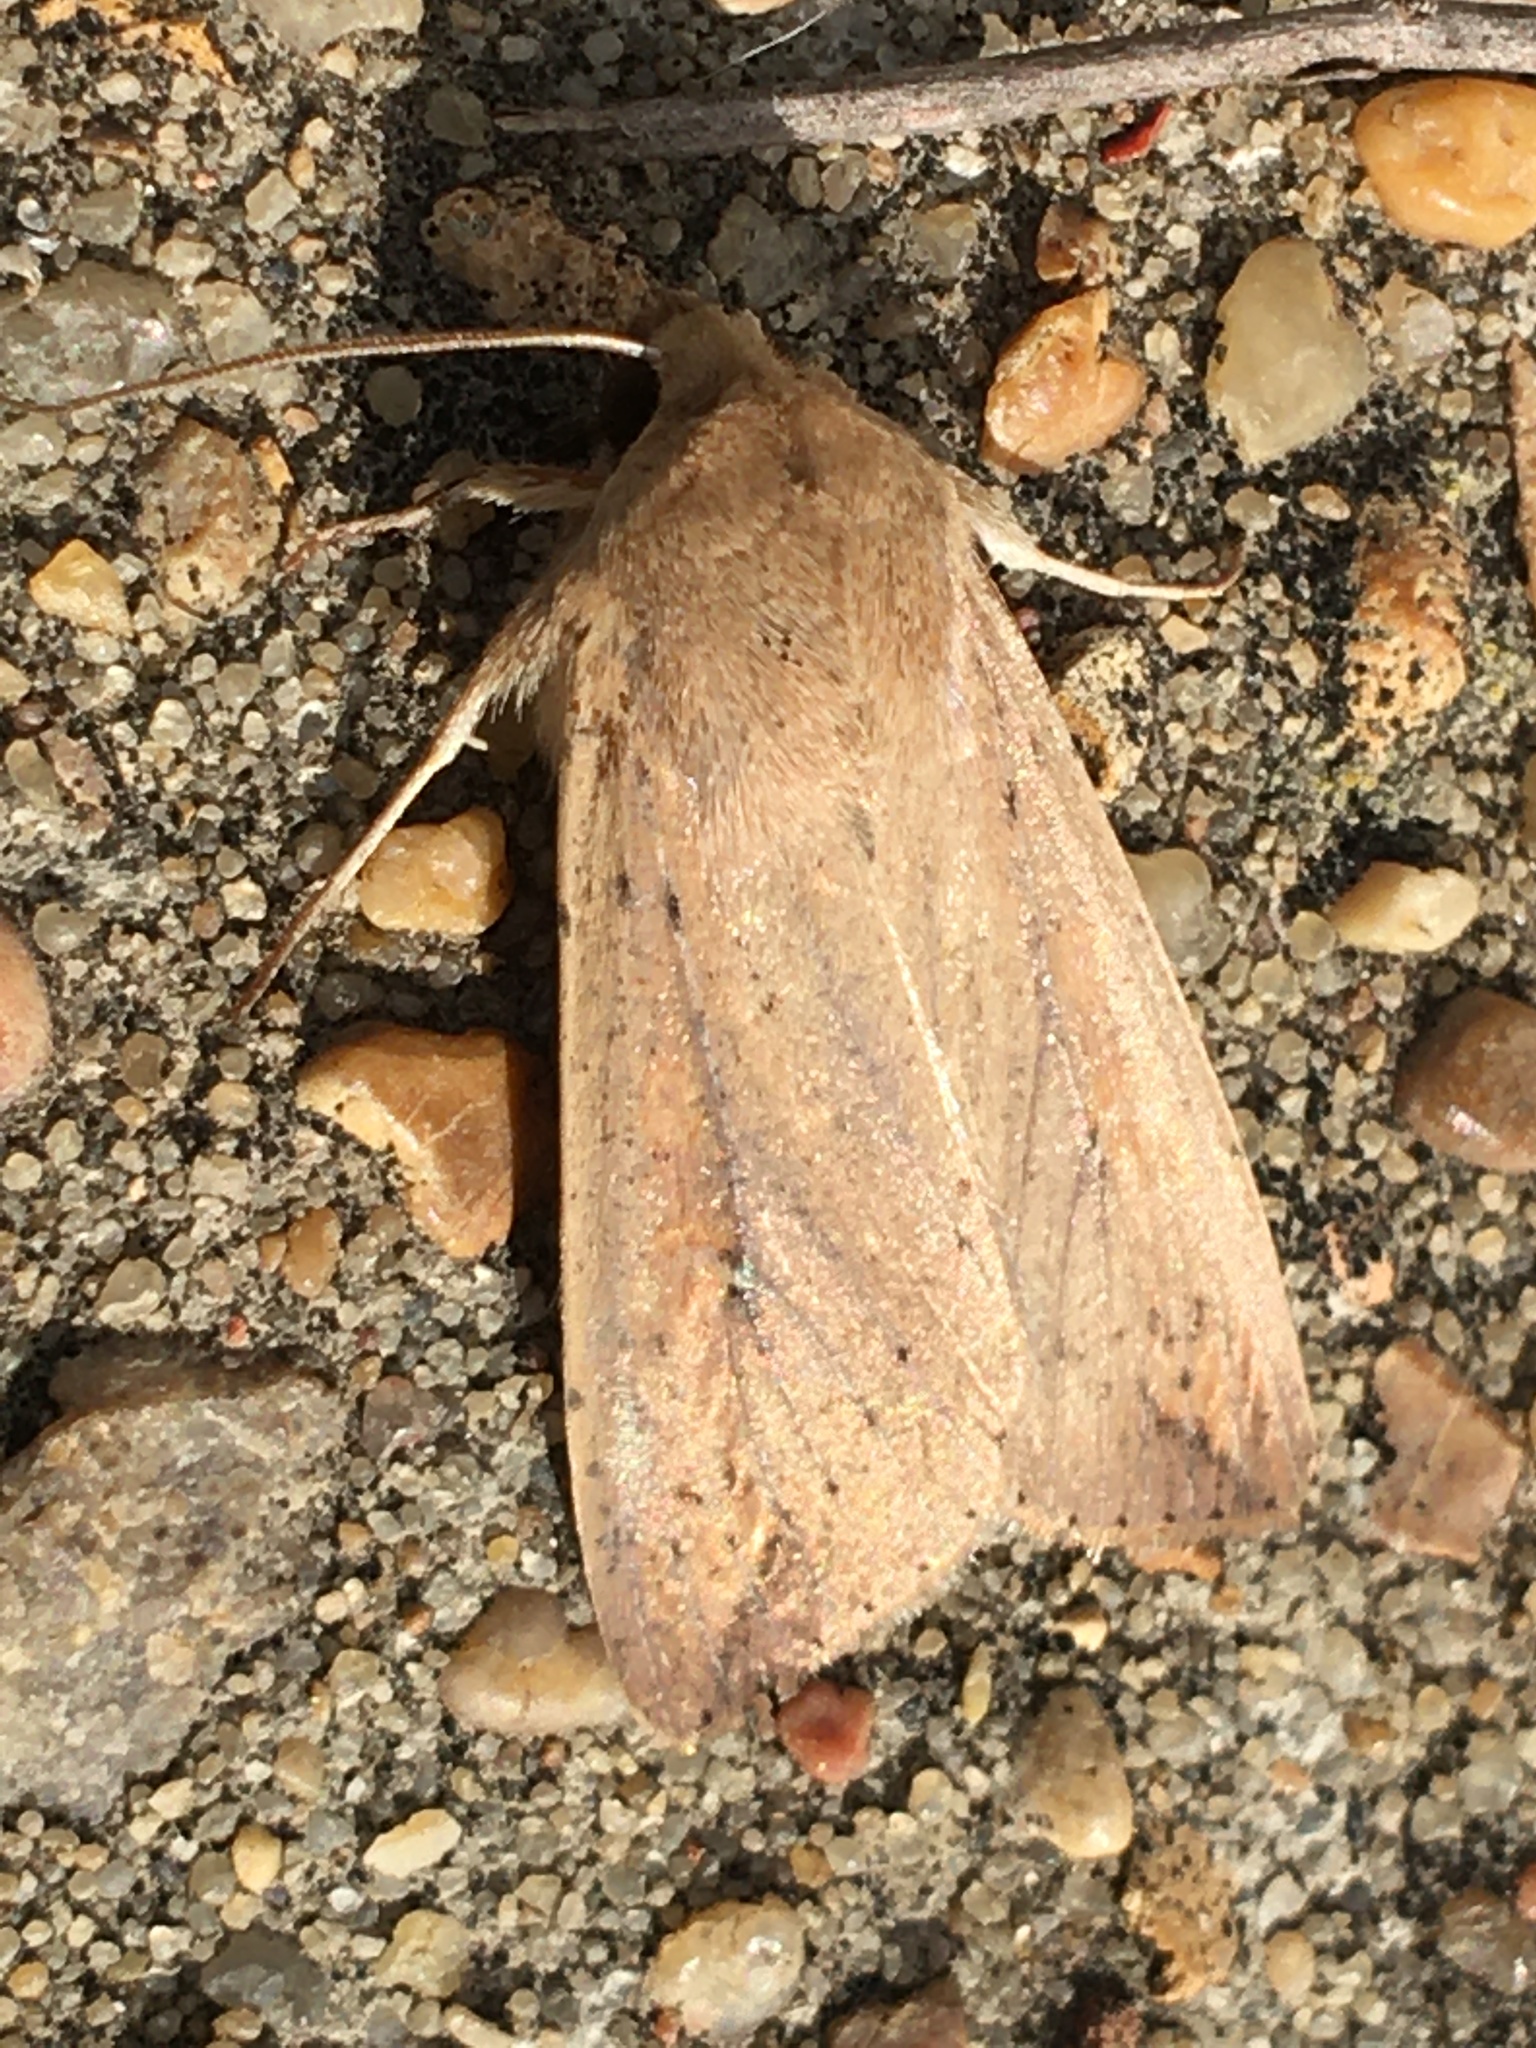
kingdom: Animalia
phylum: Arthropoda
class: Insecta
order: Lepidoptera
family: Noctuidae
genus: Mythimna
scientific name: Mythimna unipuncta
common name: White-speck
